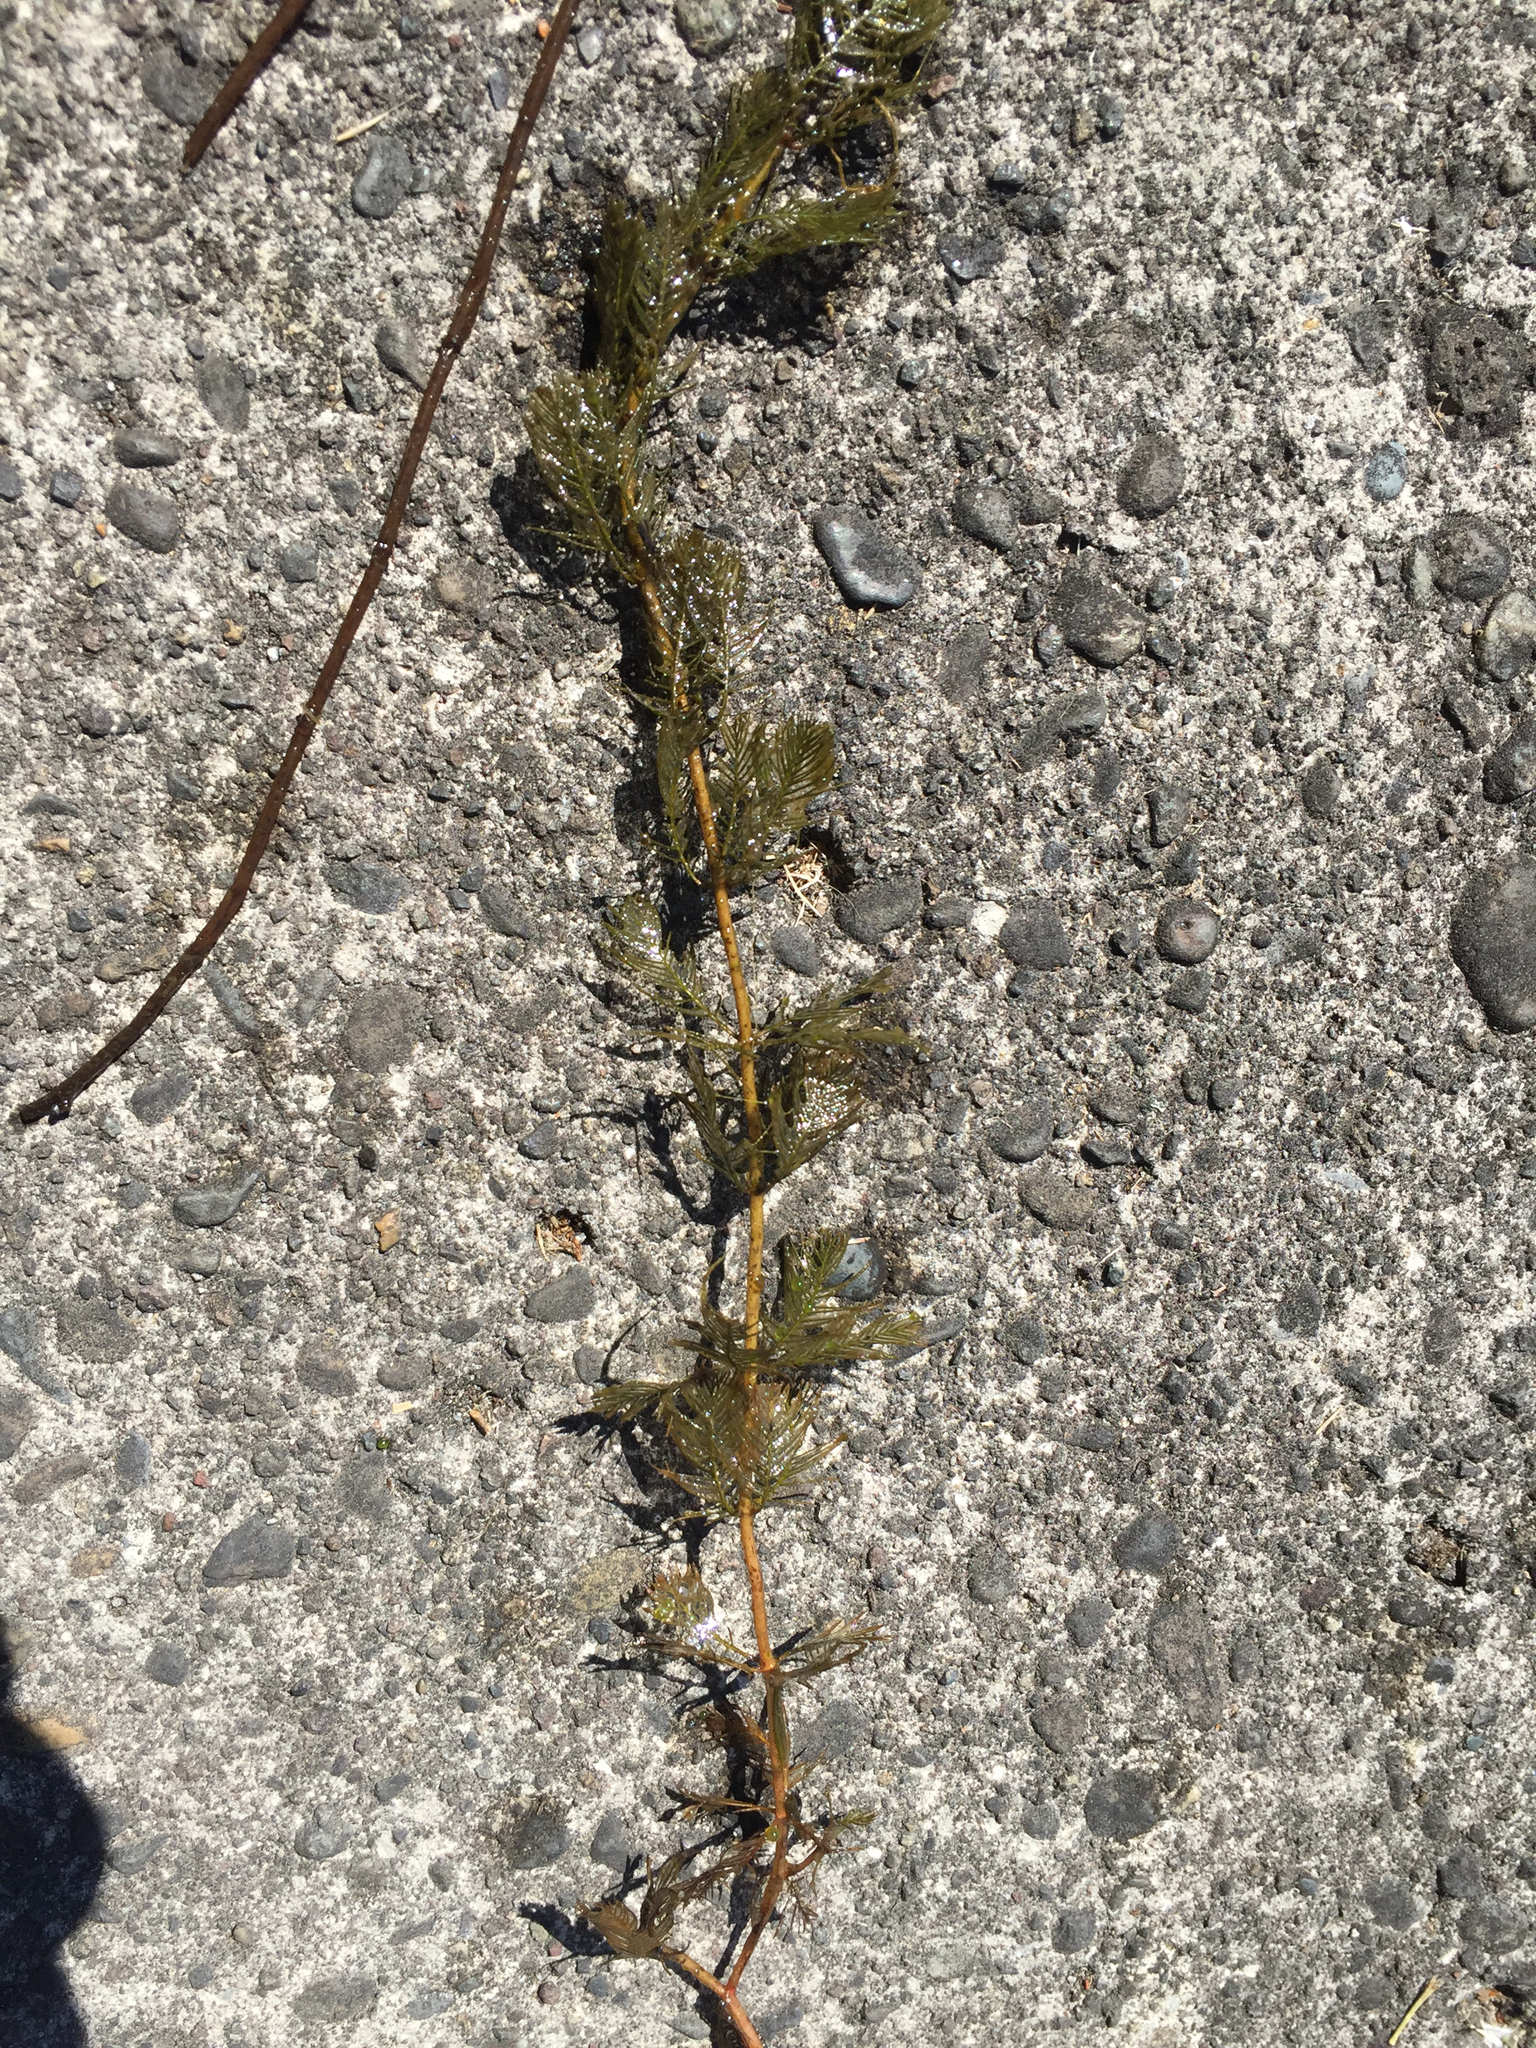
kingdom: Plantae
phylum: Tracheophyta
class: Magnoliopsida
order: Saxifragales
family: Haloragaceae
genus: Myriophyllum
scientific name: Myriophyllum spicatum
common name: Spiked water-milfoil
